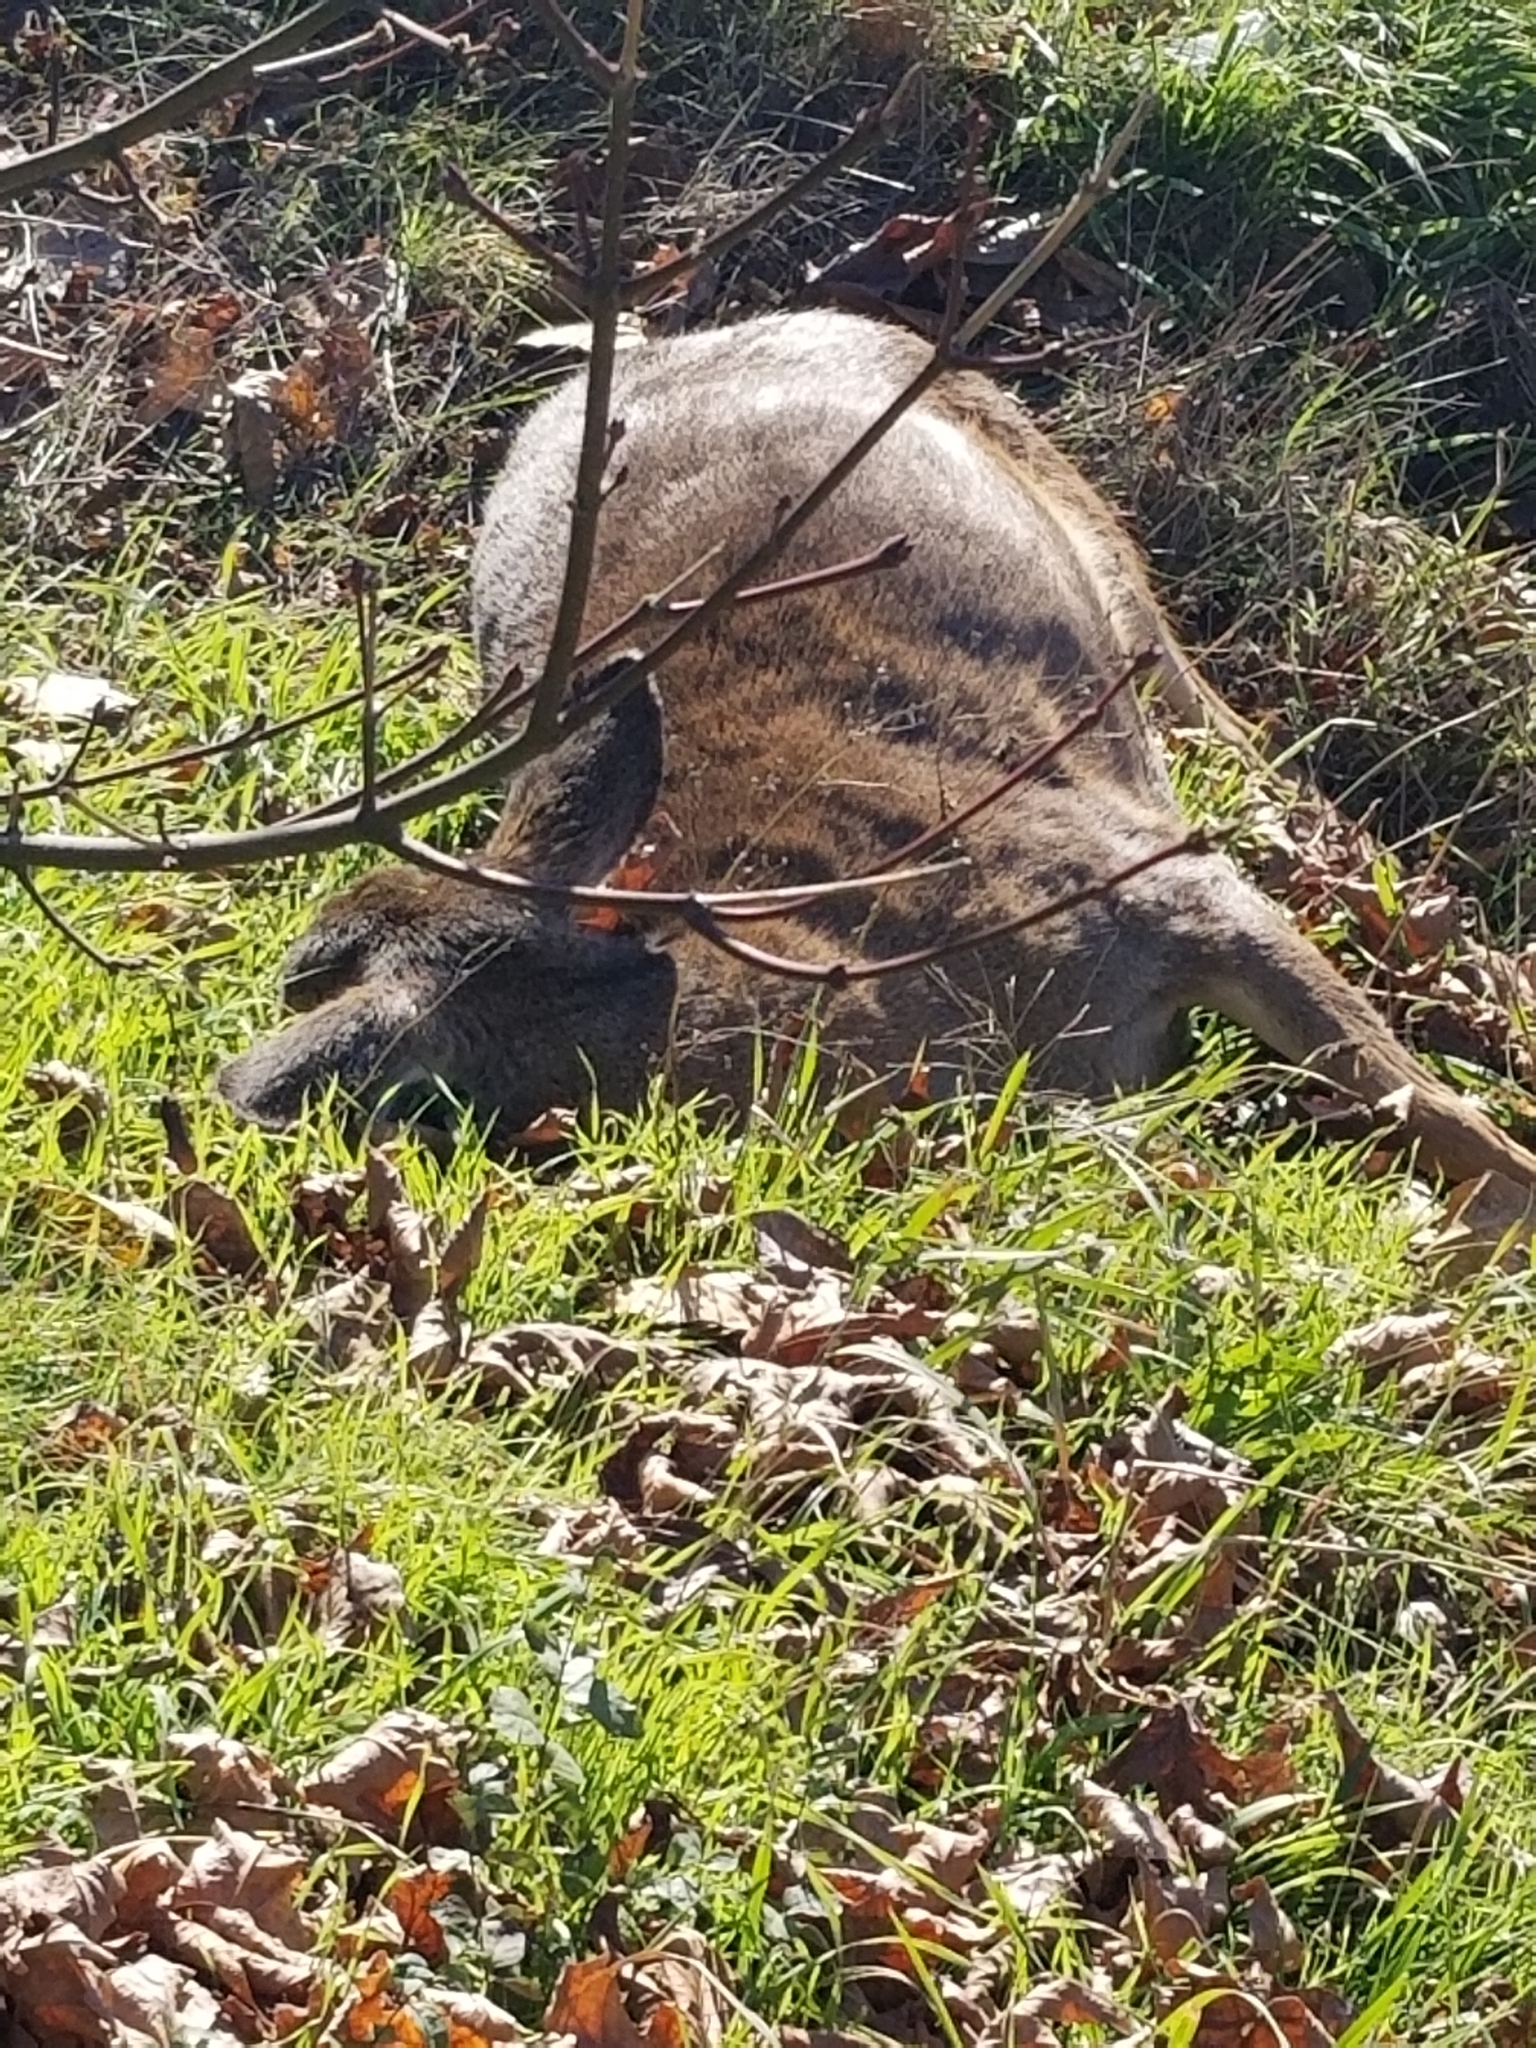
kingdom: Animalia
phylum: Chordata
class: Mammalia
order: Artiodactyla
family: Cervidae
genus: Odocoileus
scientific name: Odocoileus hemionus
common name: Mule deer
